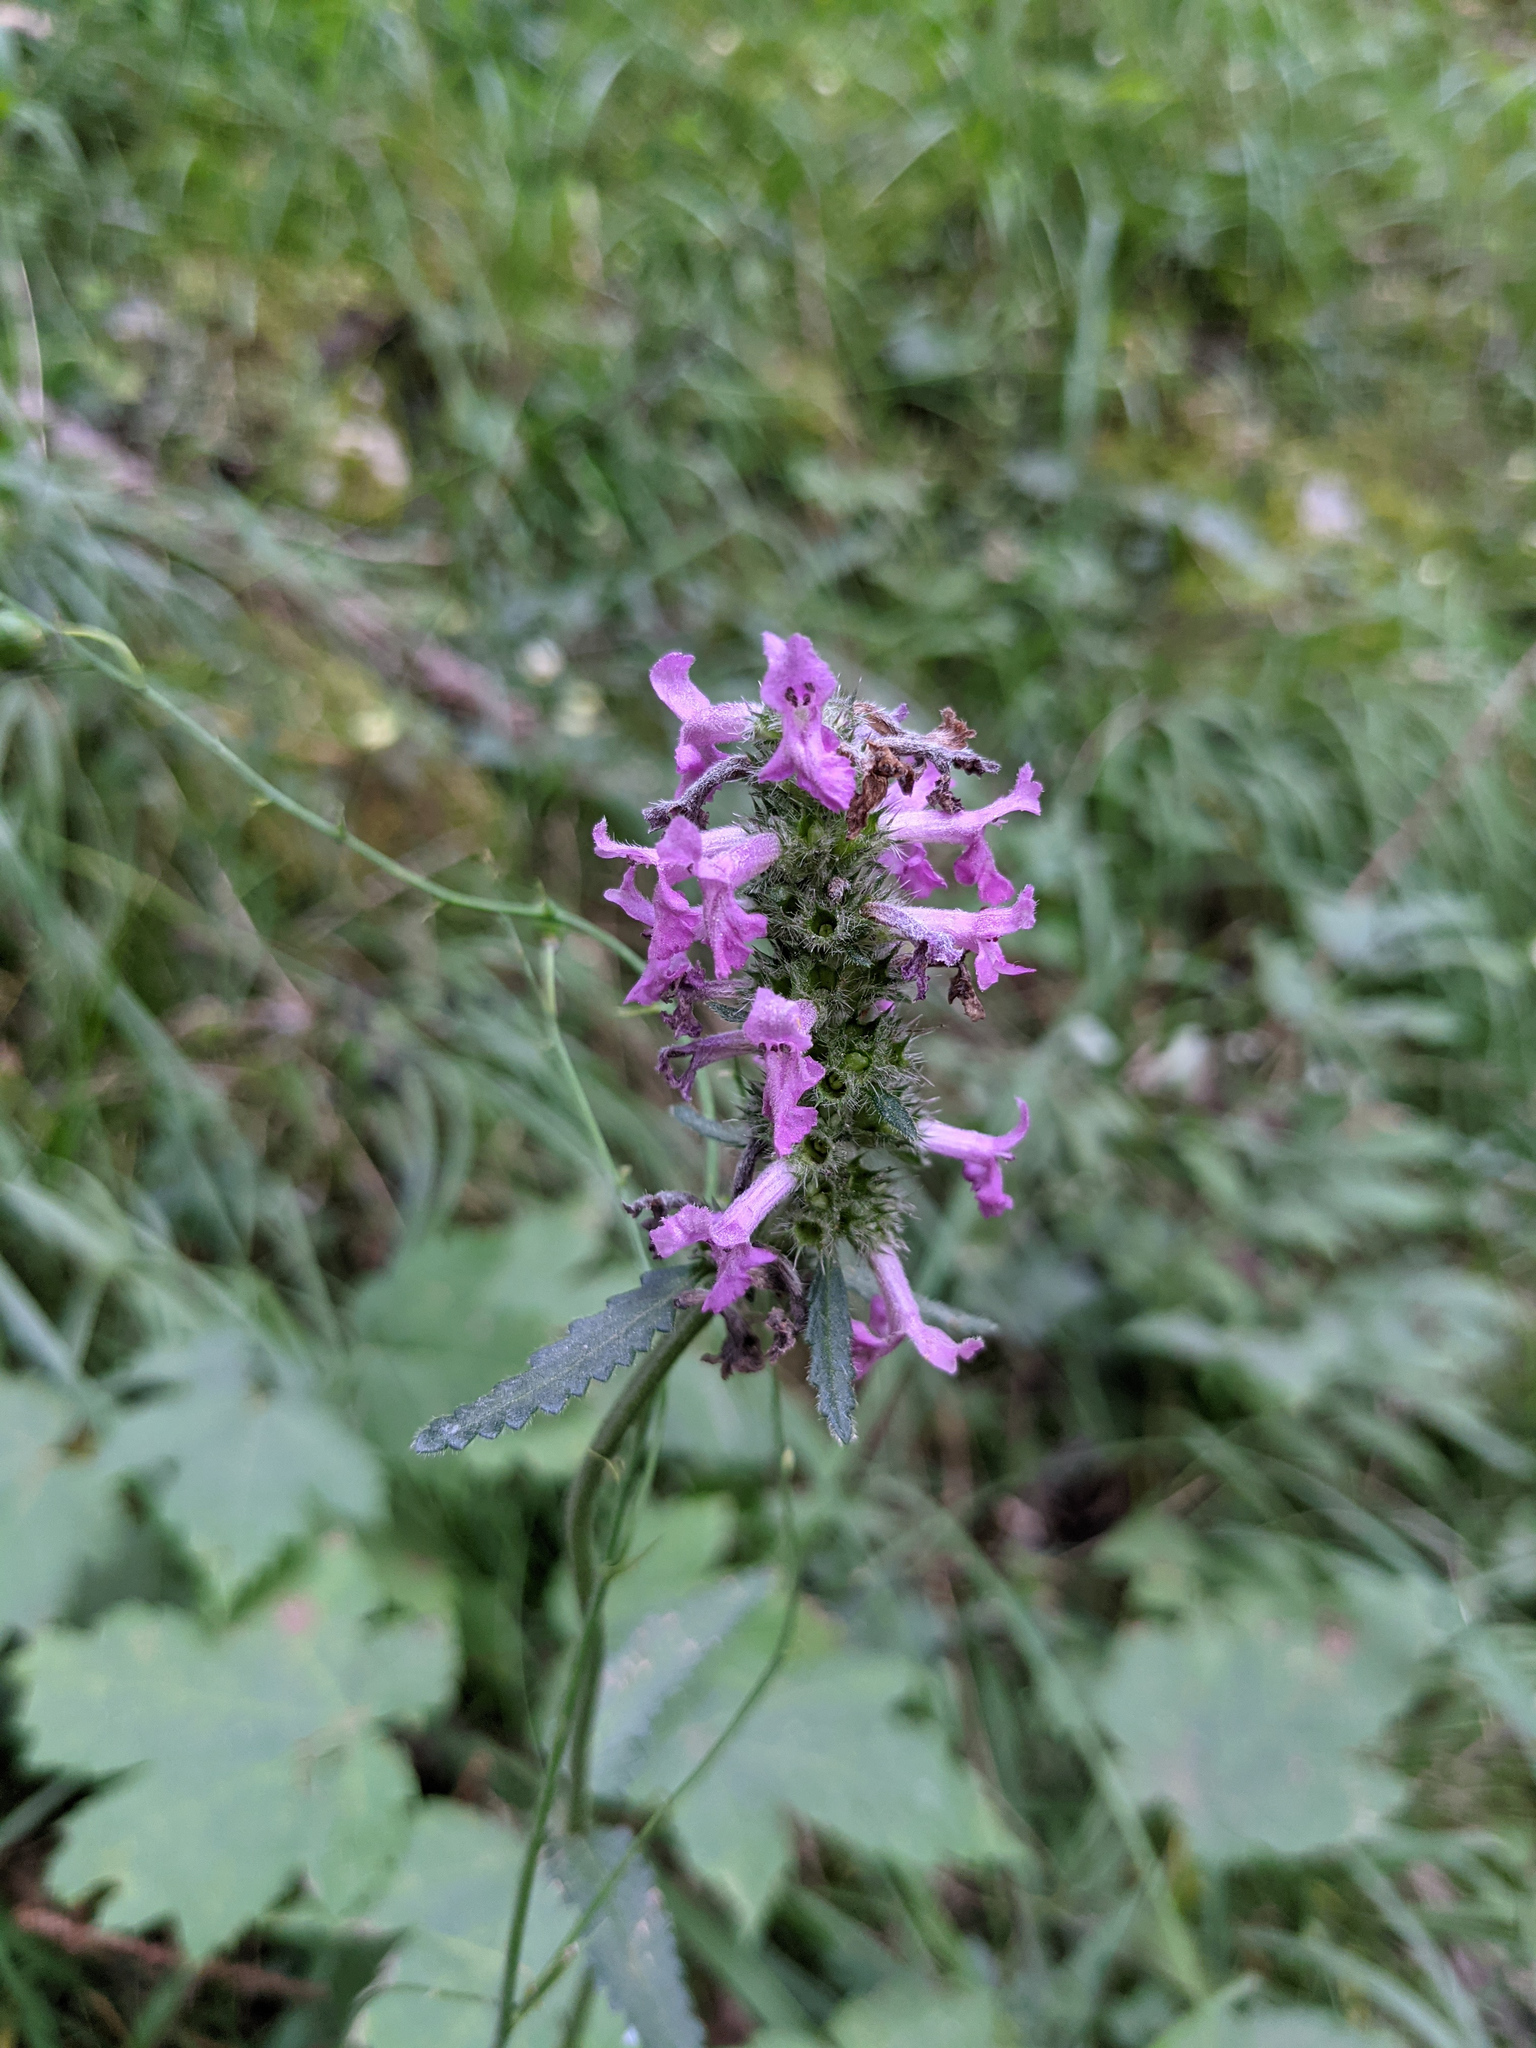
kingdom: Plantae
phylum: Tracheophyta
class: Magnoliopsida
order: Lamiales
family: Lamiaceae
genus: Betonica
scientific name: Betonica officinalis
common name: Bishop's-wort
